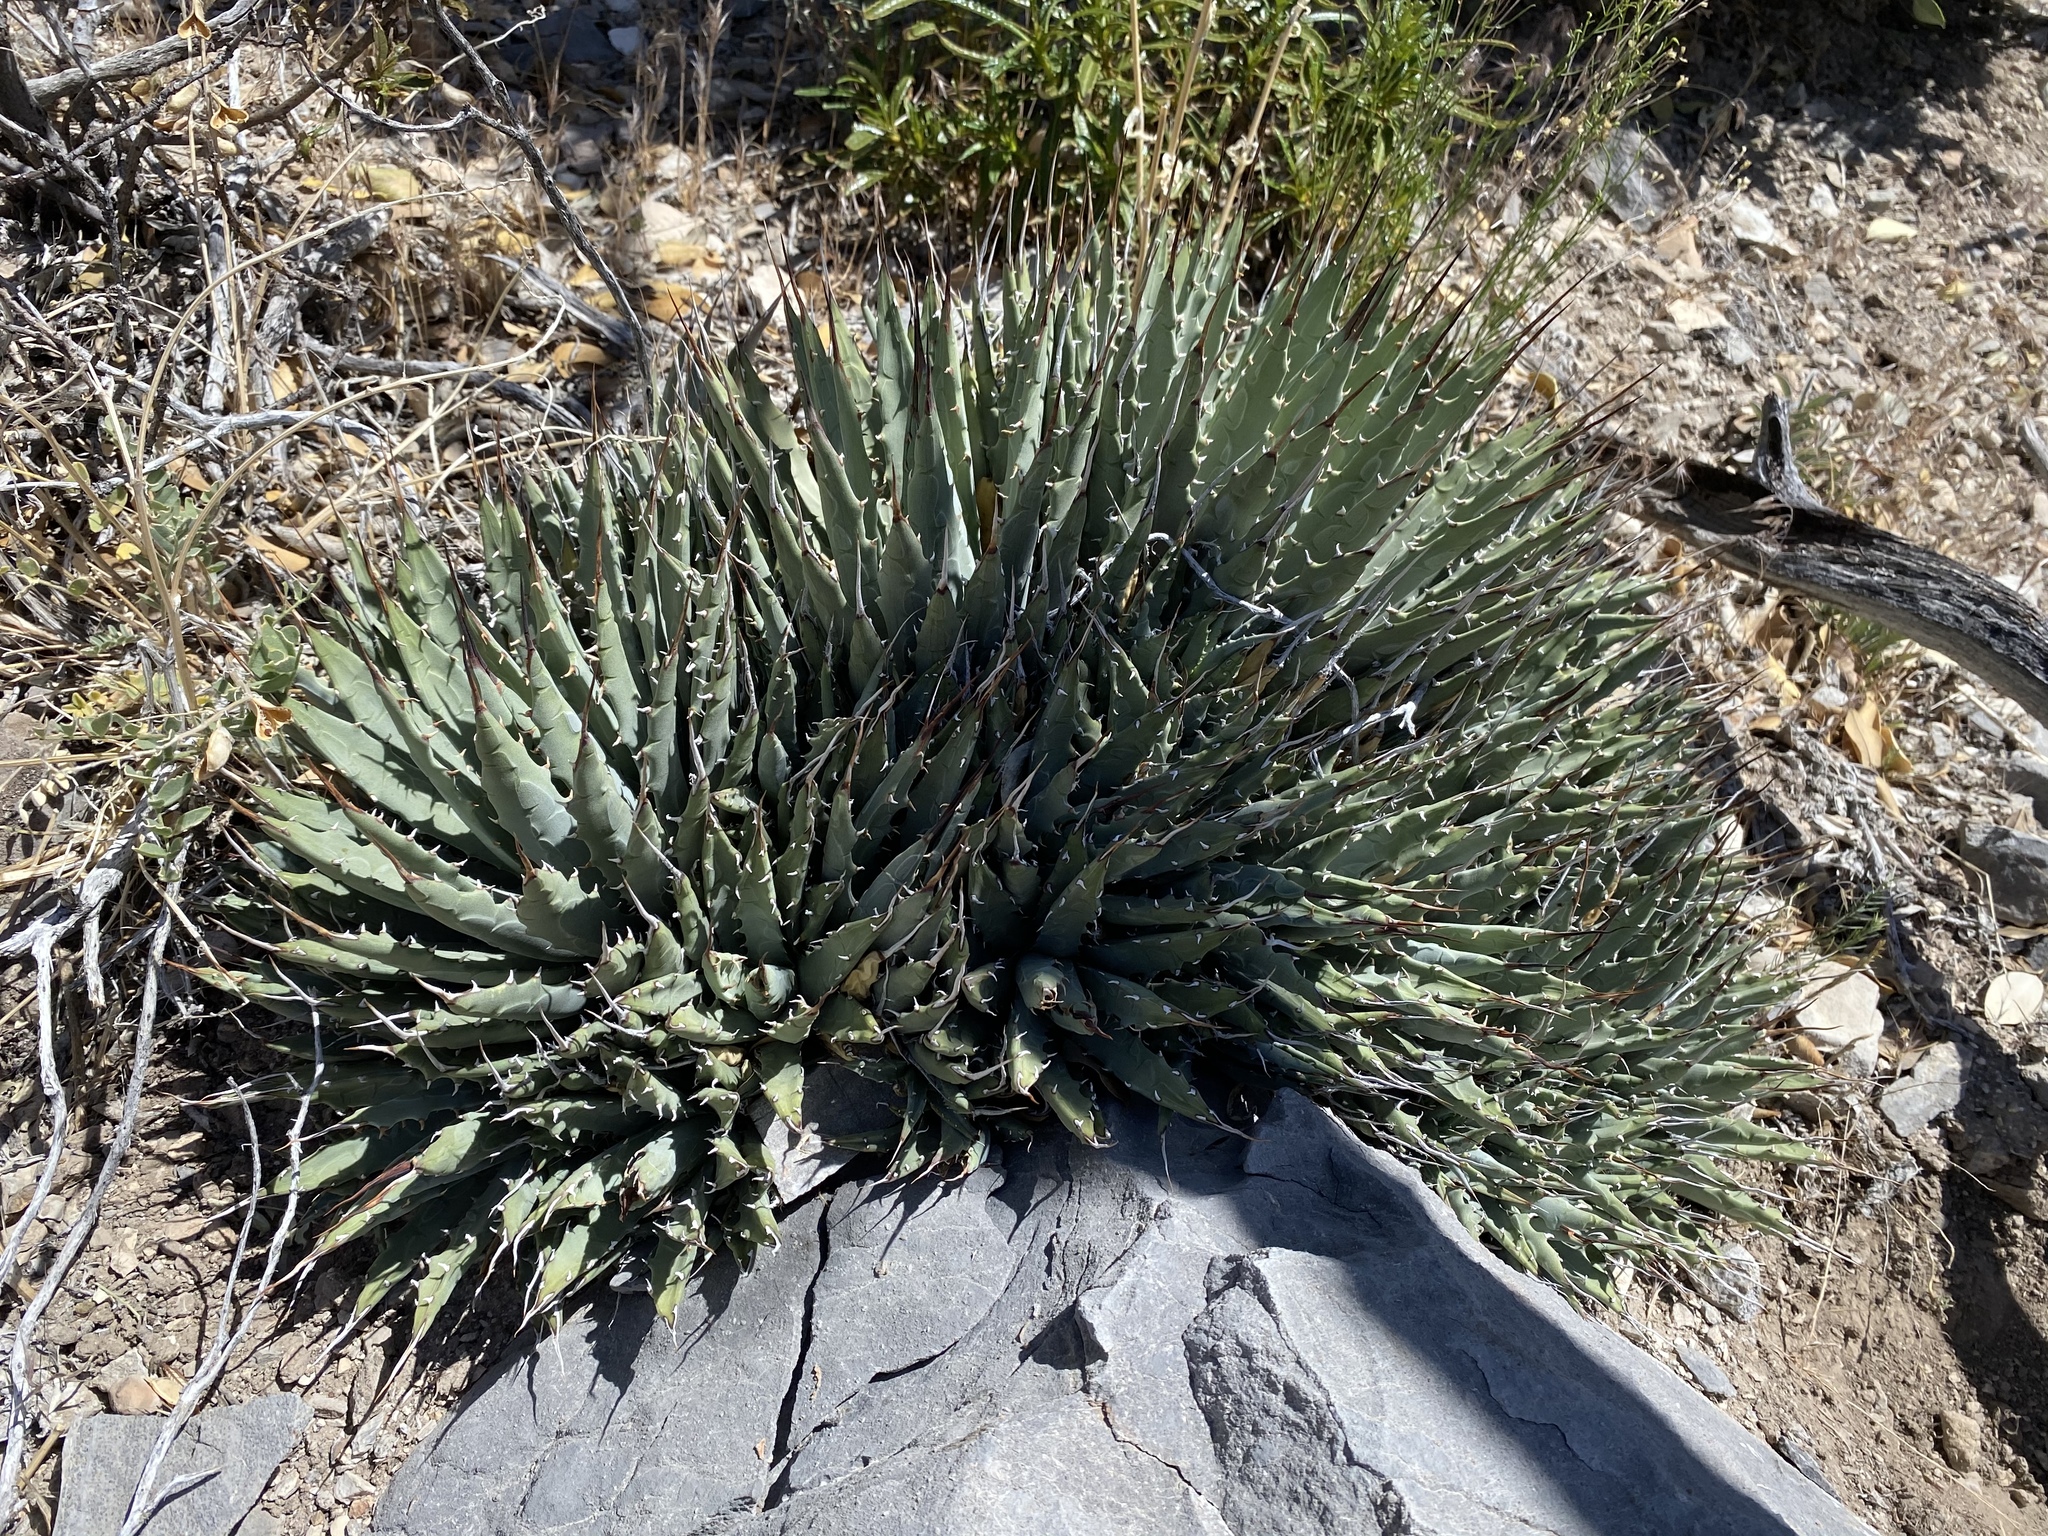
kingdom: Plantae
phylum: Tracheophyta
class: Liliopsida
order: Asparagales
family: Asparagaceae
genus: Agave
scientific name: Agave utahensis
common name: Utah agave
